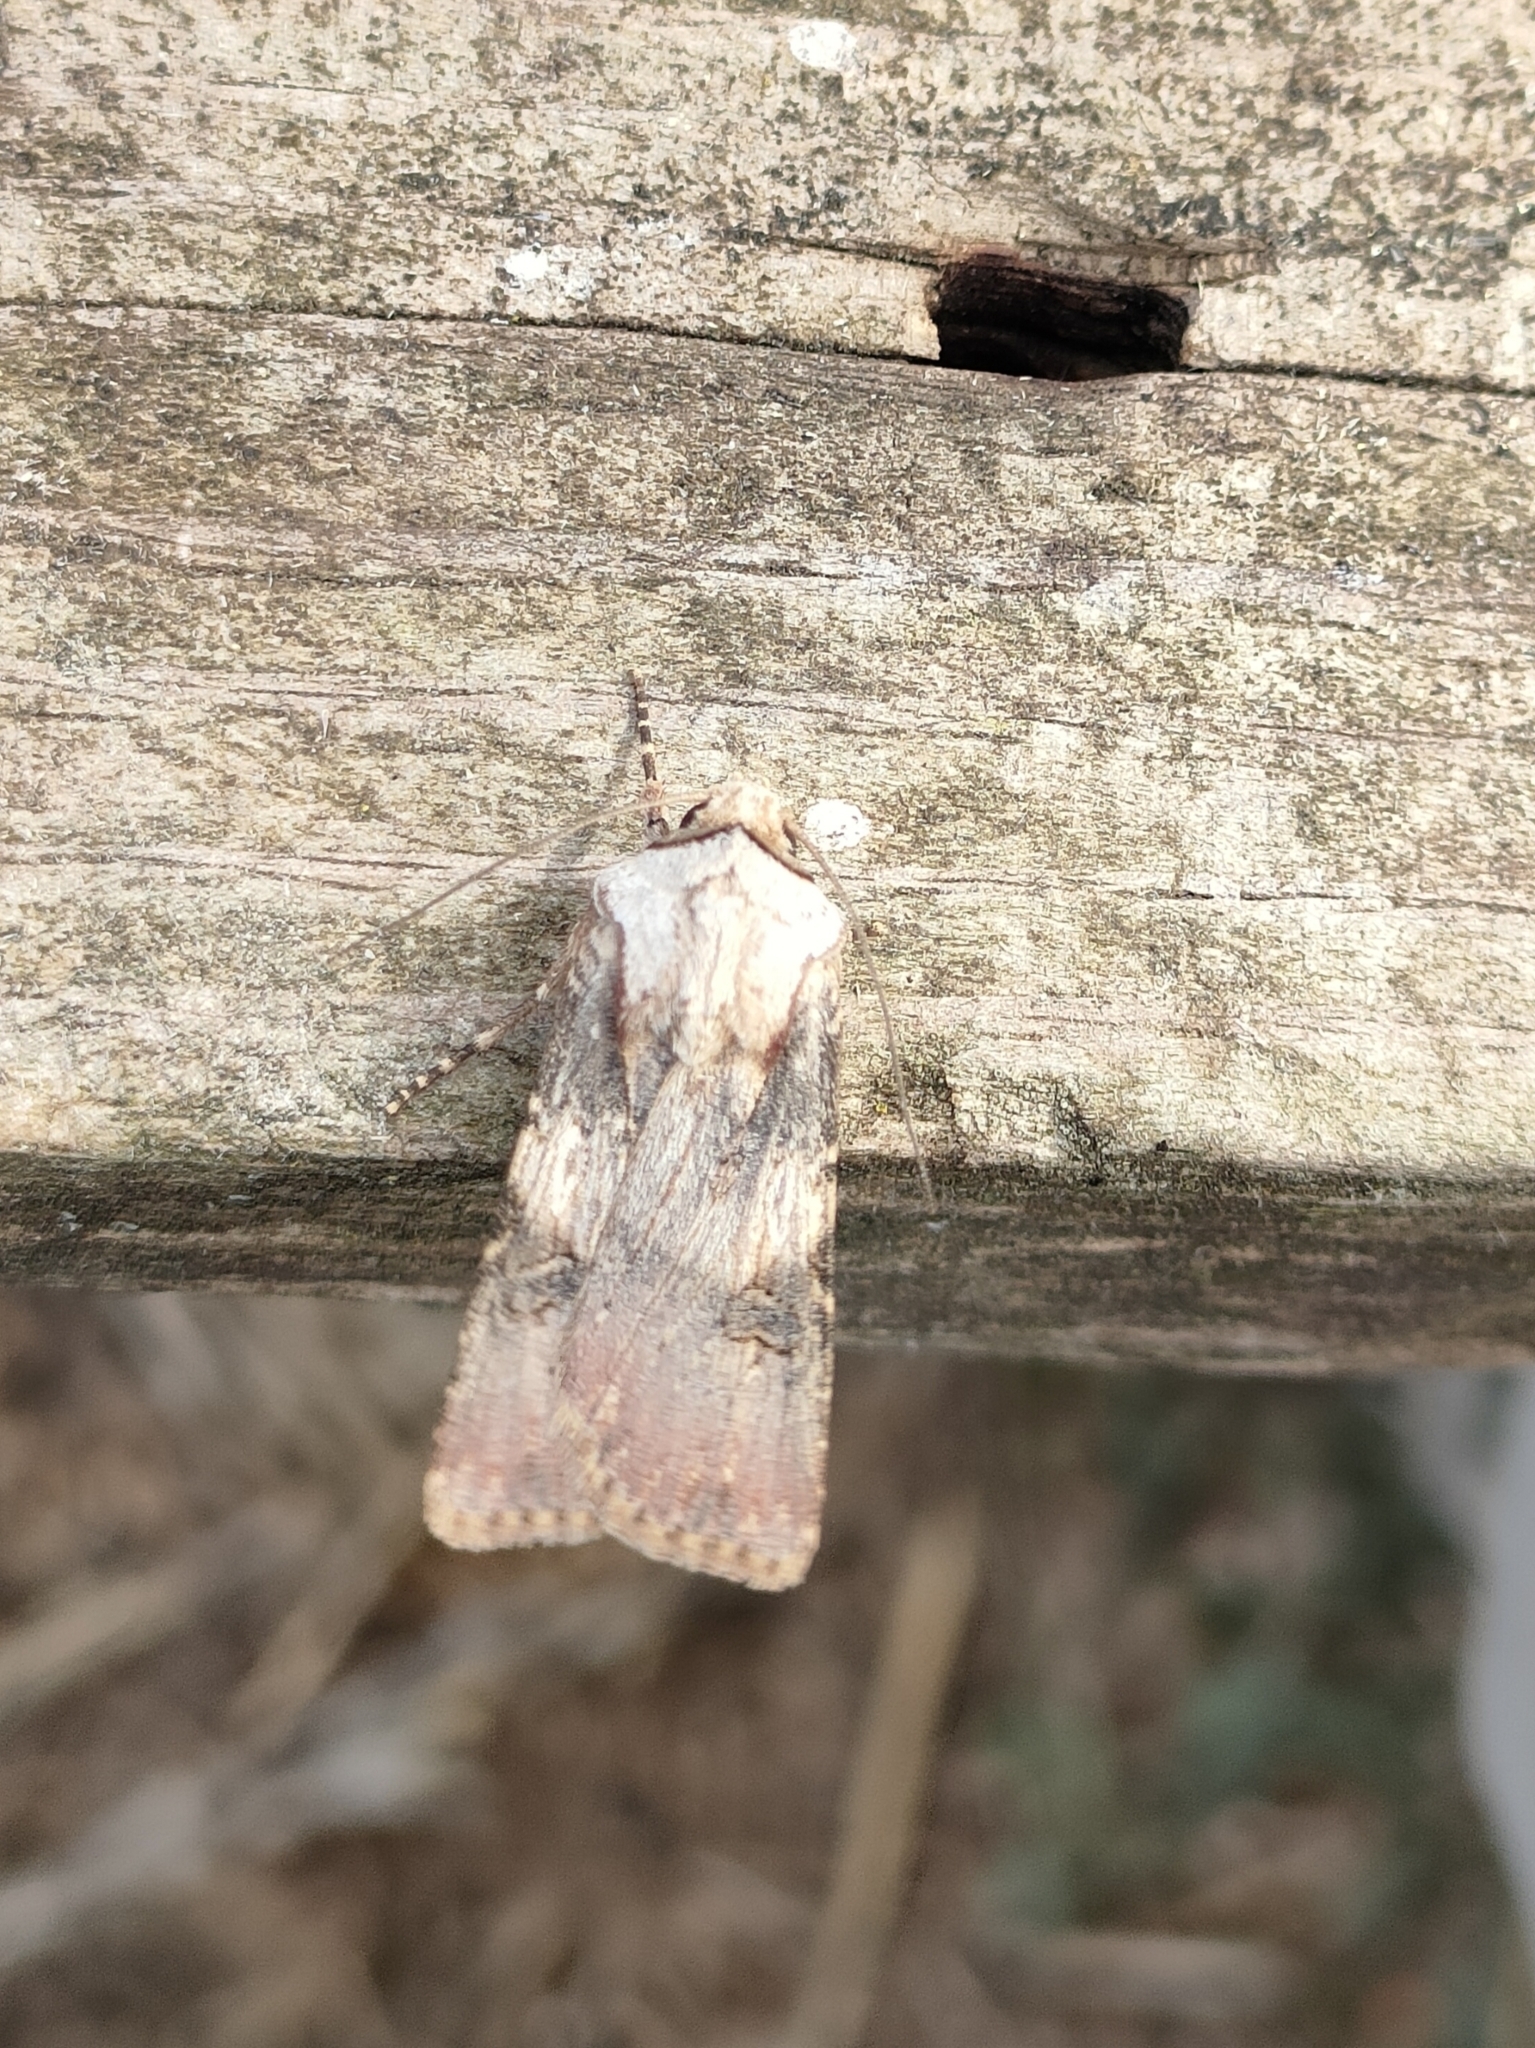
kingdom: Animalia
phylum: Arthropoda
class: Insecta
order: Lepidoptera
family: Noctuidae
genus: Agrotis
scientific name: Agrotis puta
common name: Shuttle-shaped dart
